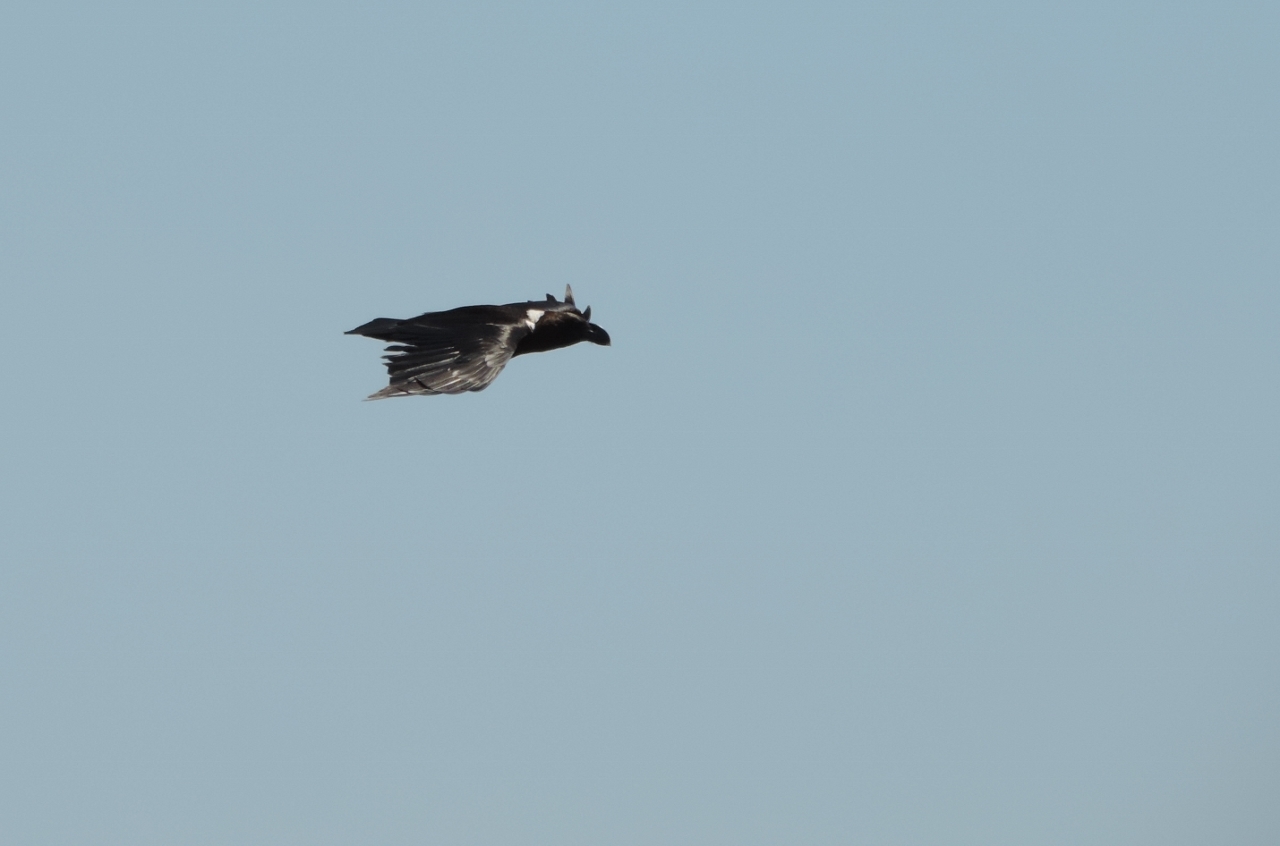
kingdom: Animalia
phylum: Chordata
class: Aves
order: Passeriformes
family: Corvidae
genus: Corvus
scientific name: Corvus albicollis
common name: White-necked raven
